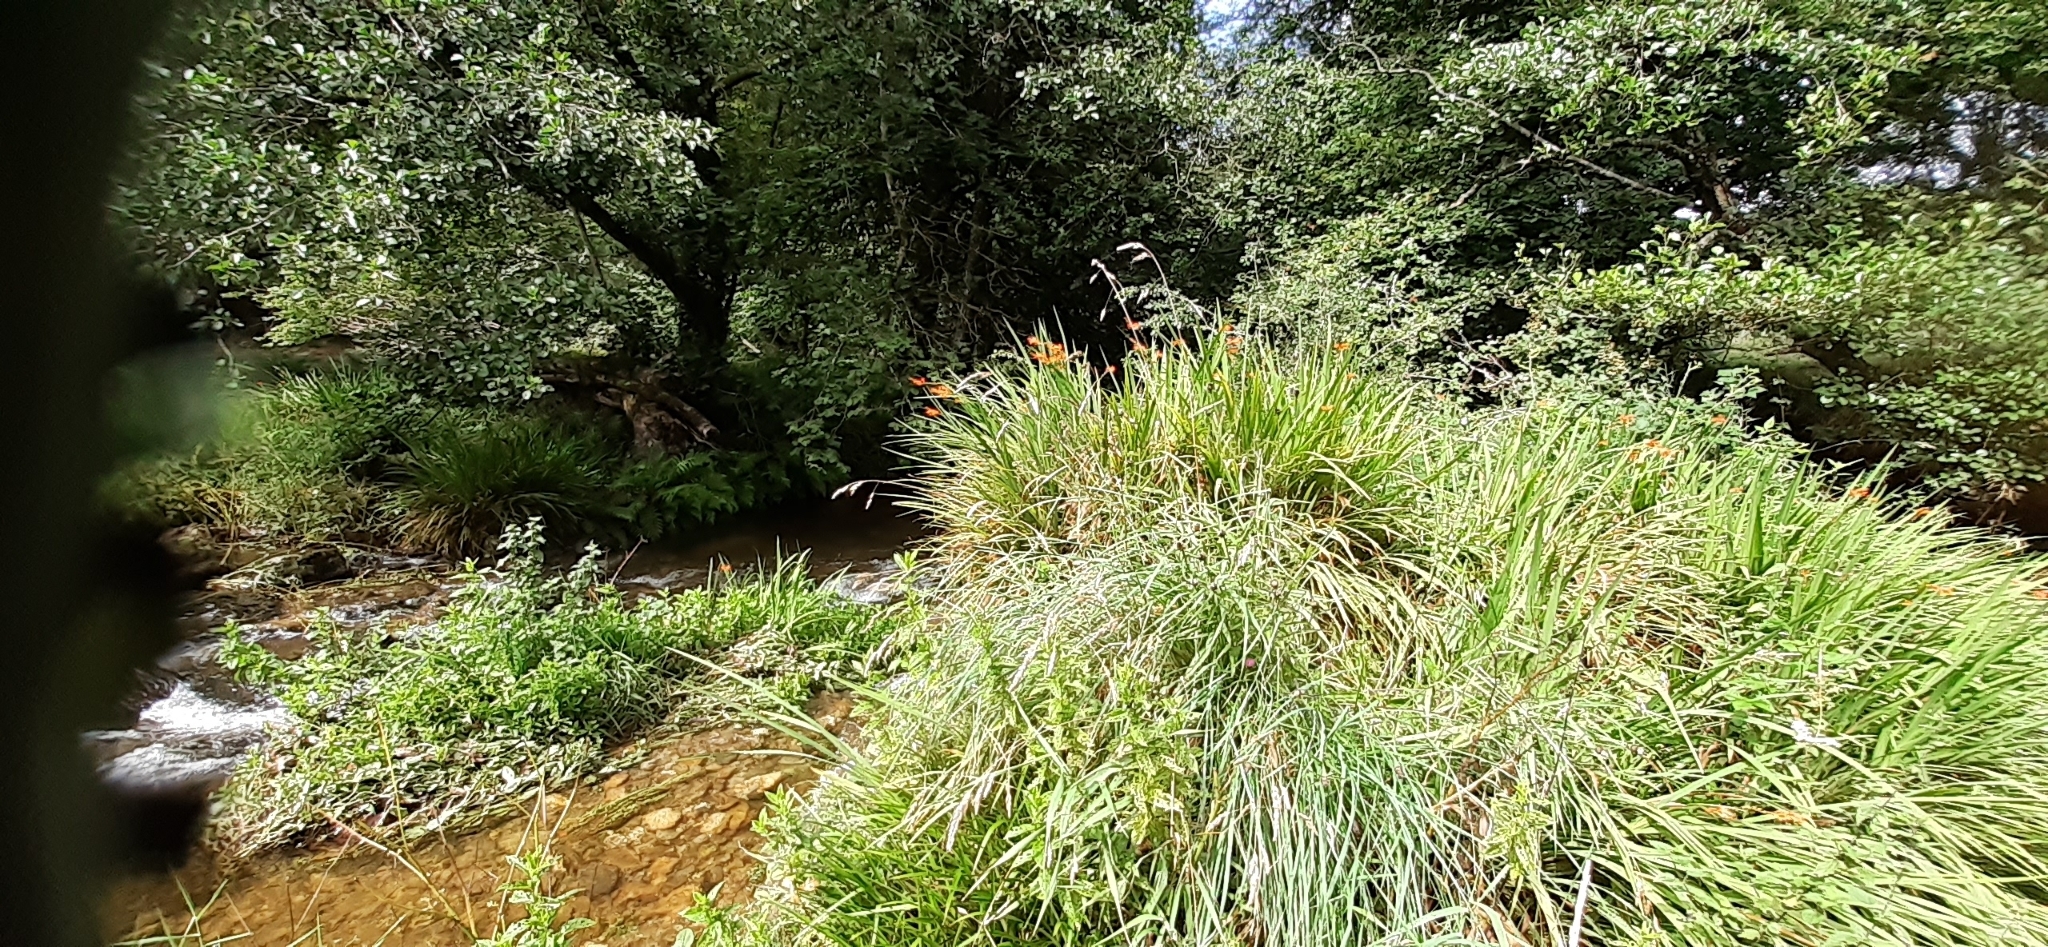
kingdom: Plantae
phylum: Tracheophyta
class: Liliopsida
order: Asparagales
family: Iridaceae
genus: Crocosmia
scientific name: Crocosmia crocosmiiflora
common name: Montbretia
